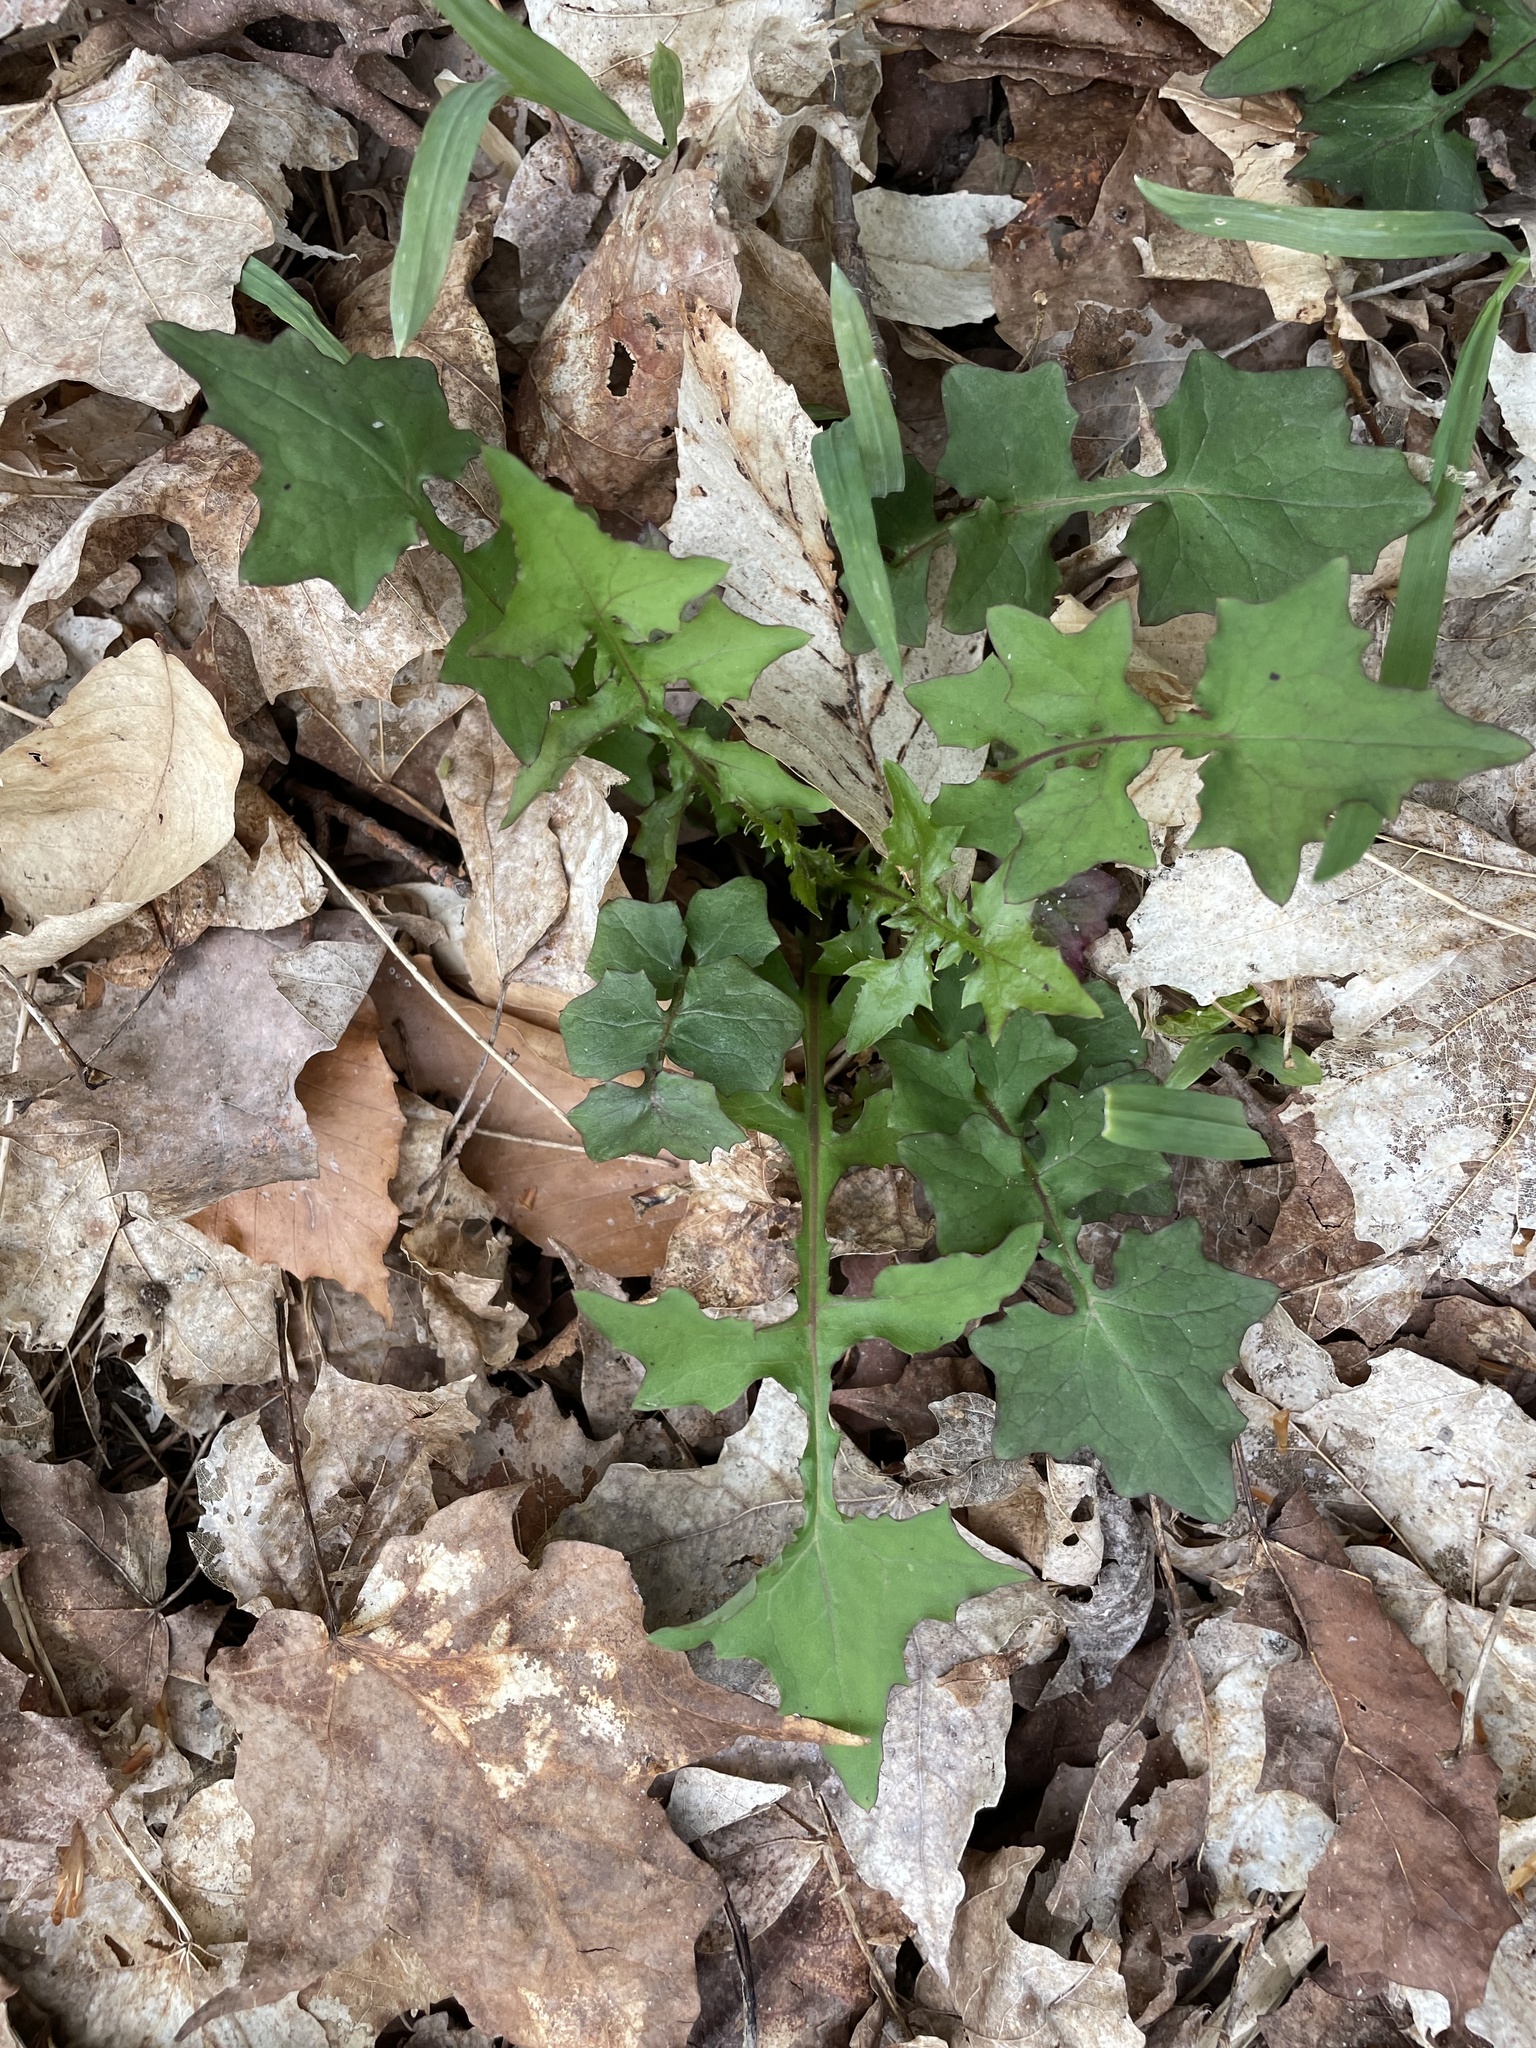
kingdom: Plantae
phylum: Tracheophyta
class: Magnoliopsida
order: Asterales
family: Asteraceae
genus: Mycelis
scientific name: Mycelis muralis
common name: Wall lettuce
